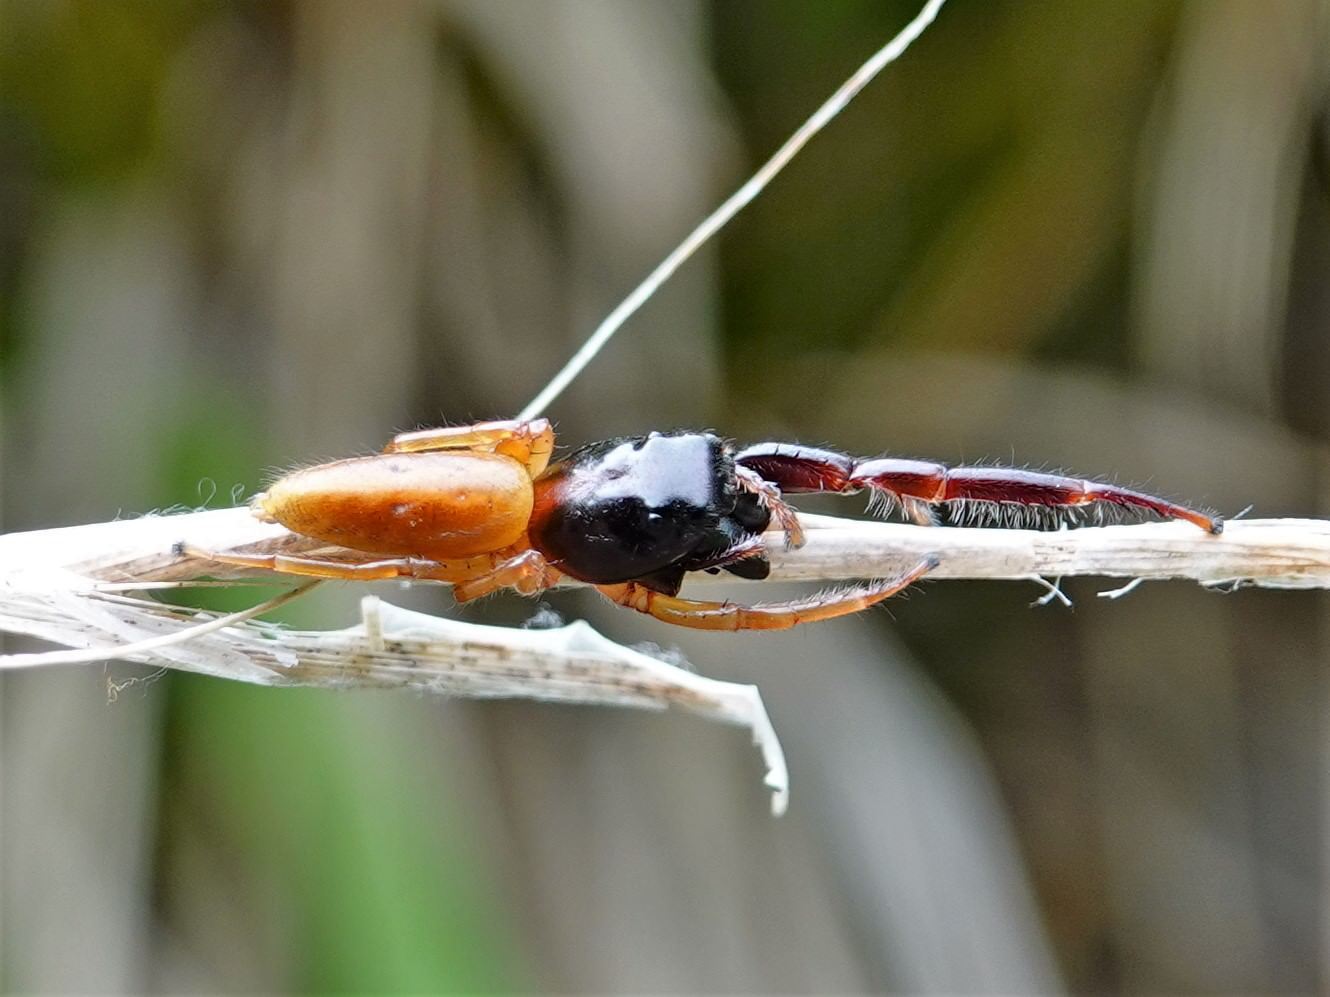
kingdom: Animalia
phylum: Arthropoda
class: Arachnida
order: Araneae
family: Salticidae
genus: Trite
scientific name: Trite planiceps
